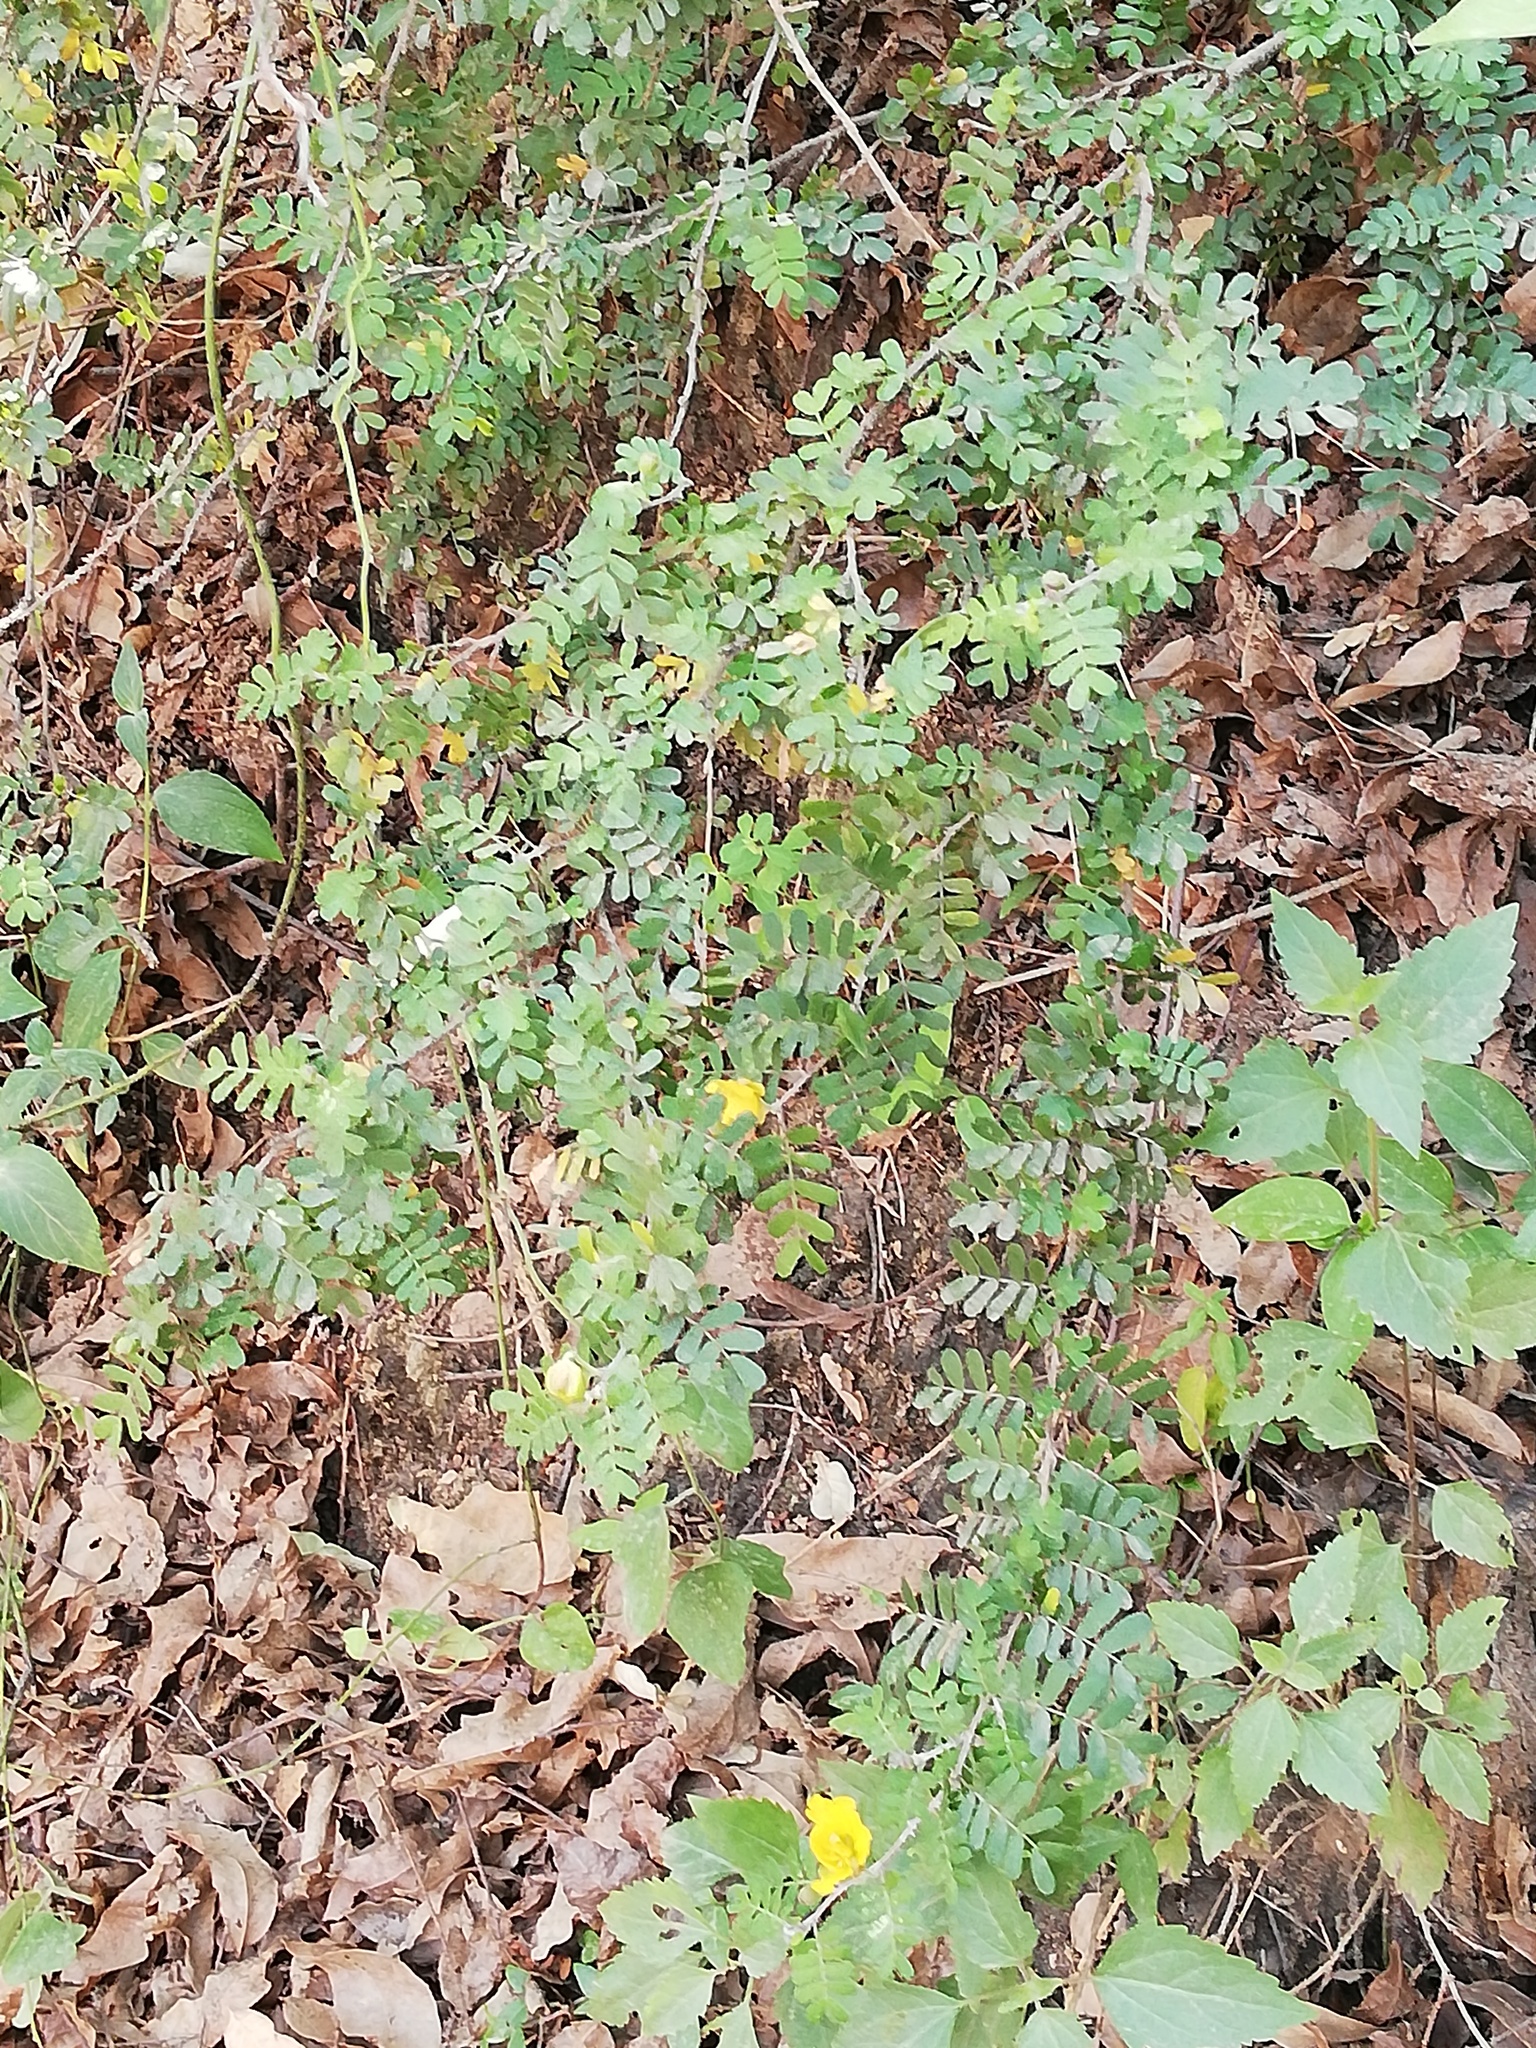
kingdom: Plantae
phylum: Tracheophyta
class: Magnoliopsida
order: Fabales
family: Fabaceae
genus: Chamaecrista
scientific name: Chamaecrista greggii
